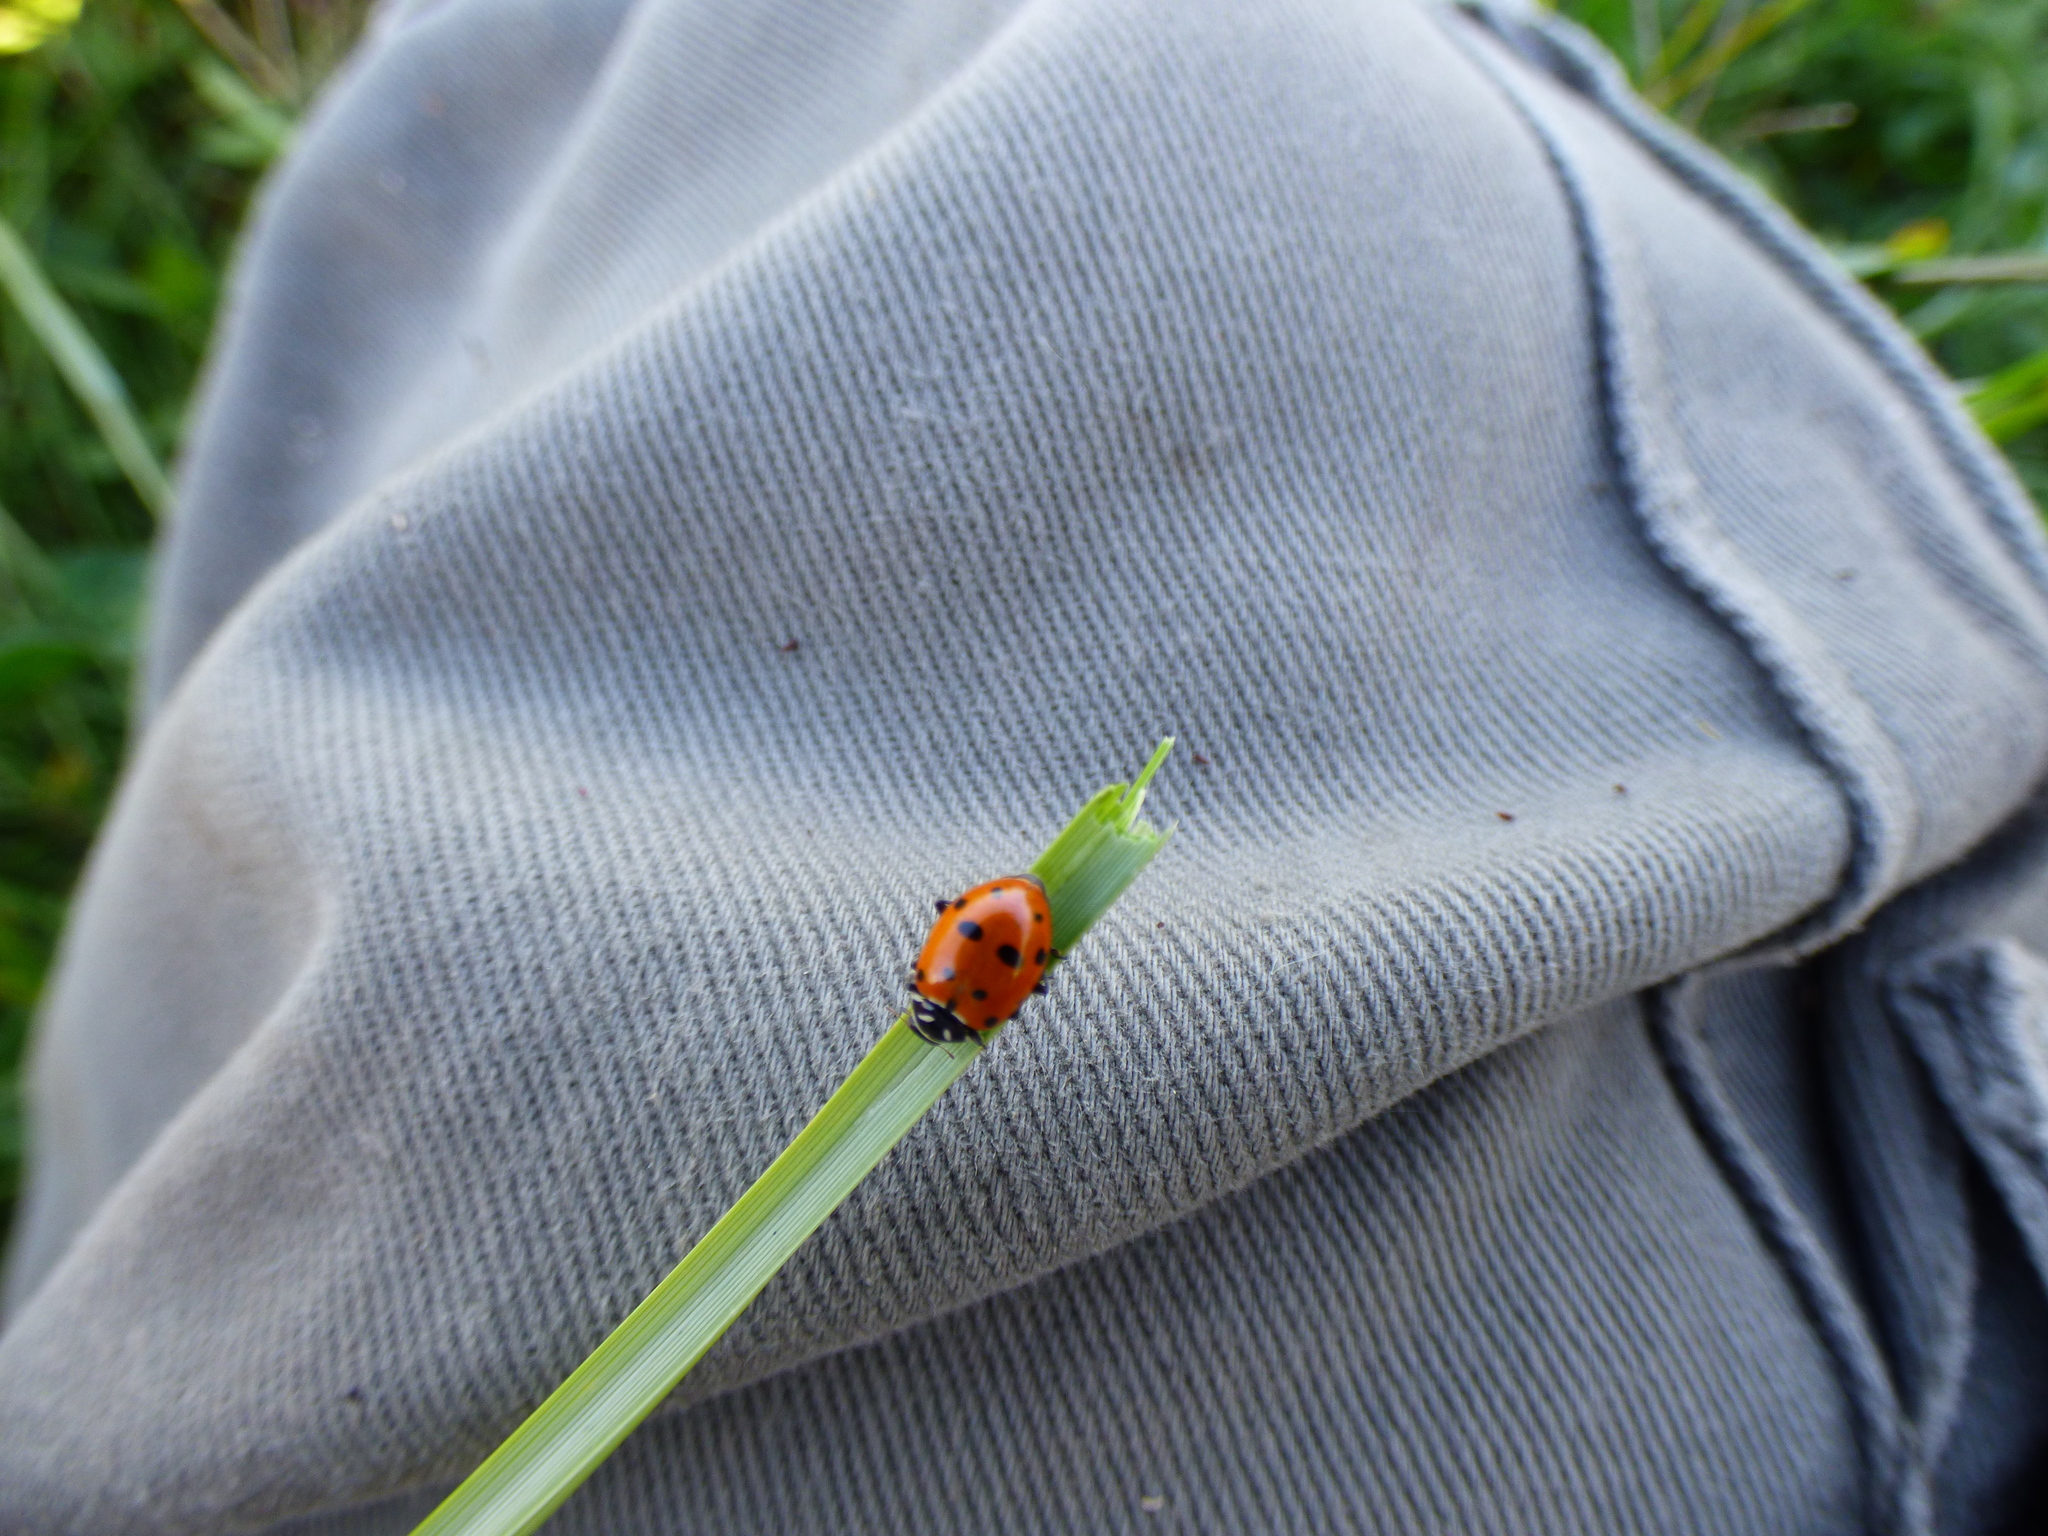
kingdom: Animalia
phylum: Arthropoda
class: Insecta
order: Coleoptera
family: Coccinellidae
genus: Hippodamia
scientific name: Hippodamia convergens
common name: Convergent lady beetle
